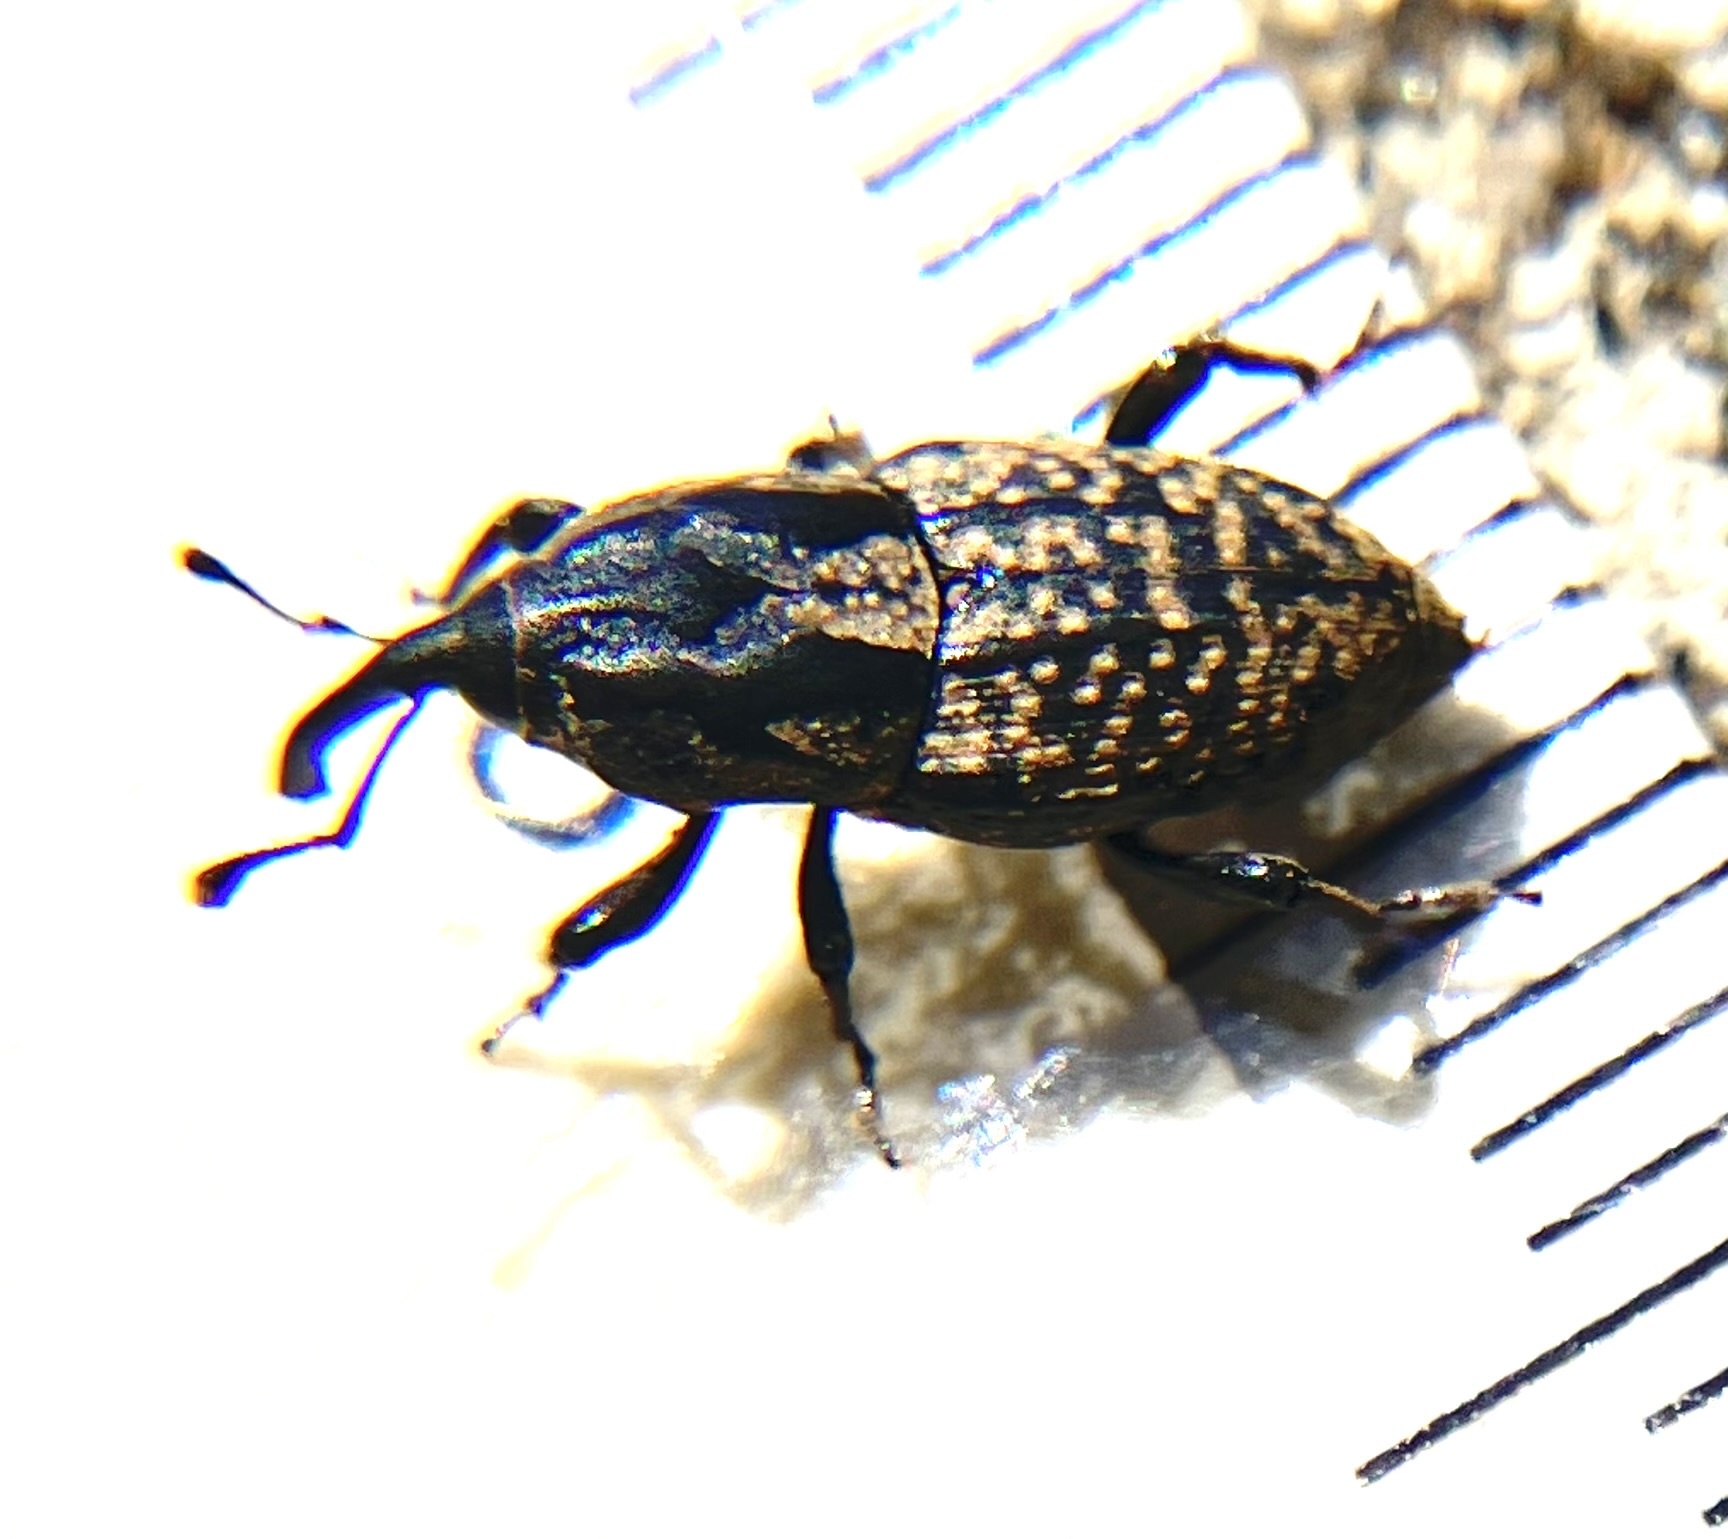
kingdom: Animalia
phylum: Arthropoda
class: Insecta
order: Coleoptera
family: Dryophthoridae
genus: Sphenophorus
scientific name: Sphenophorus cariosus
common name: Weevil
